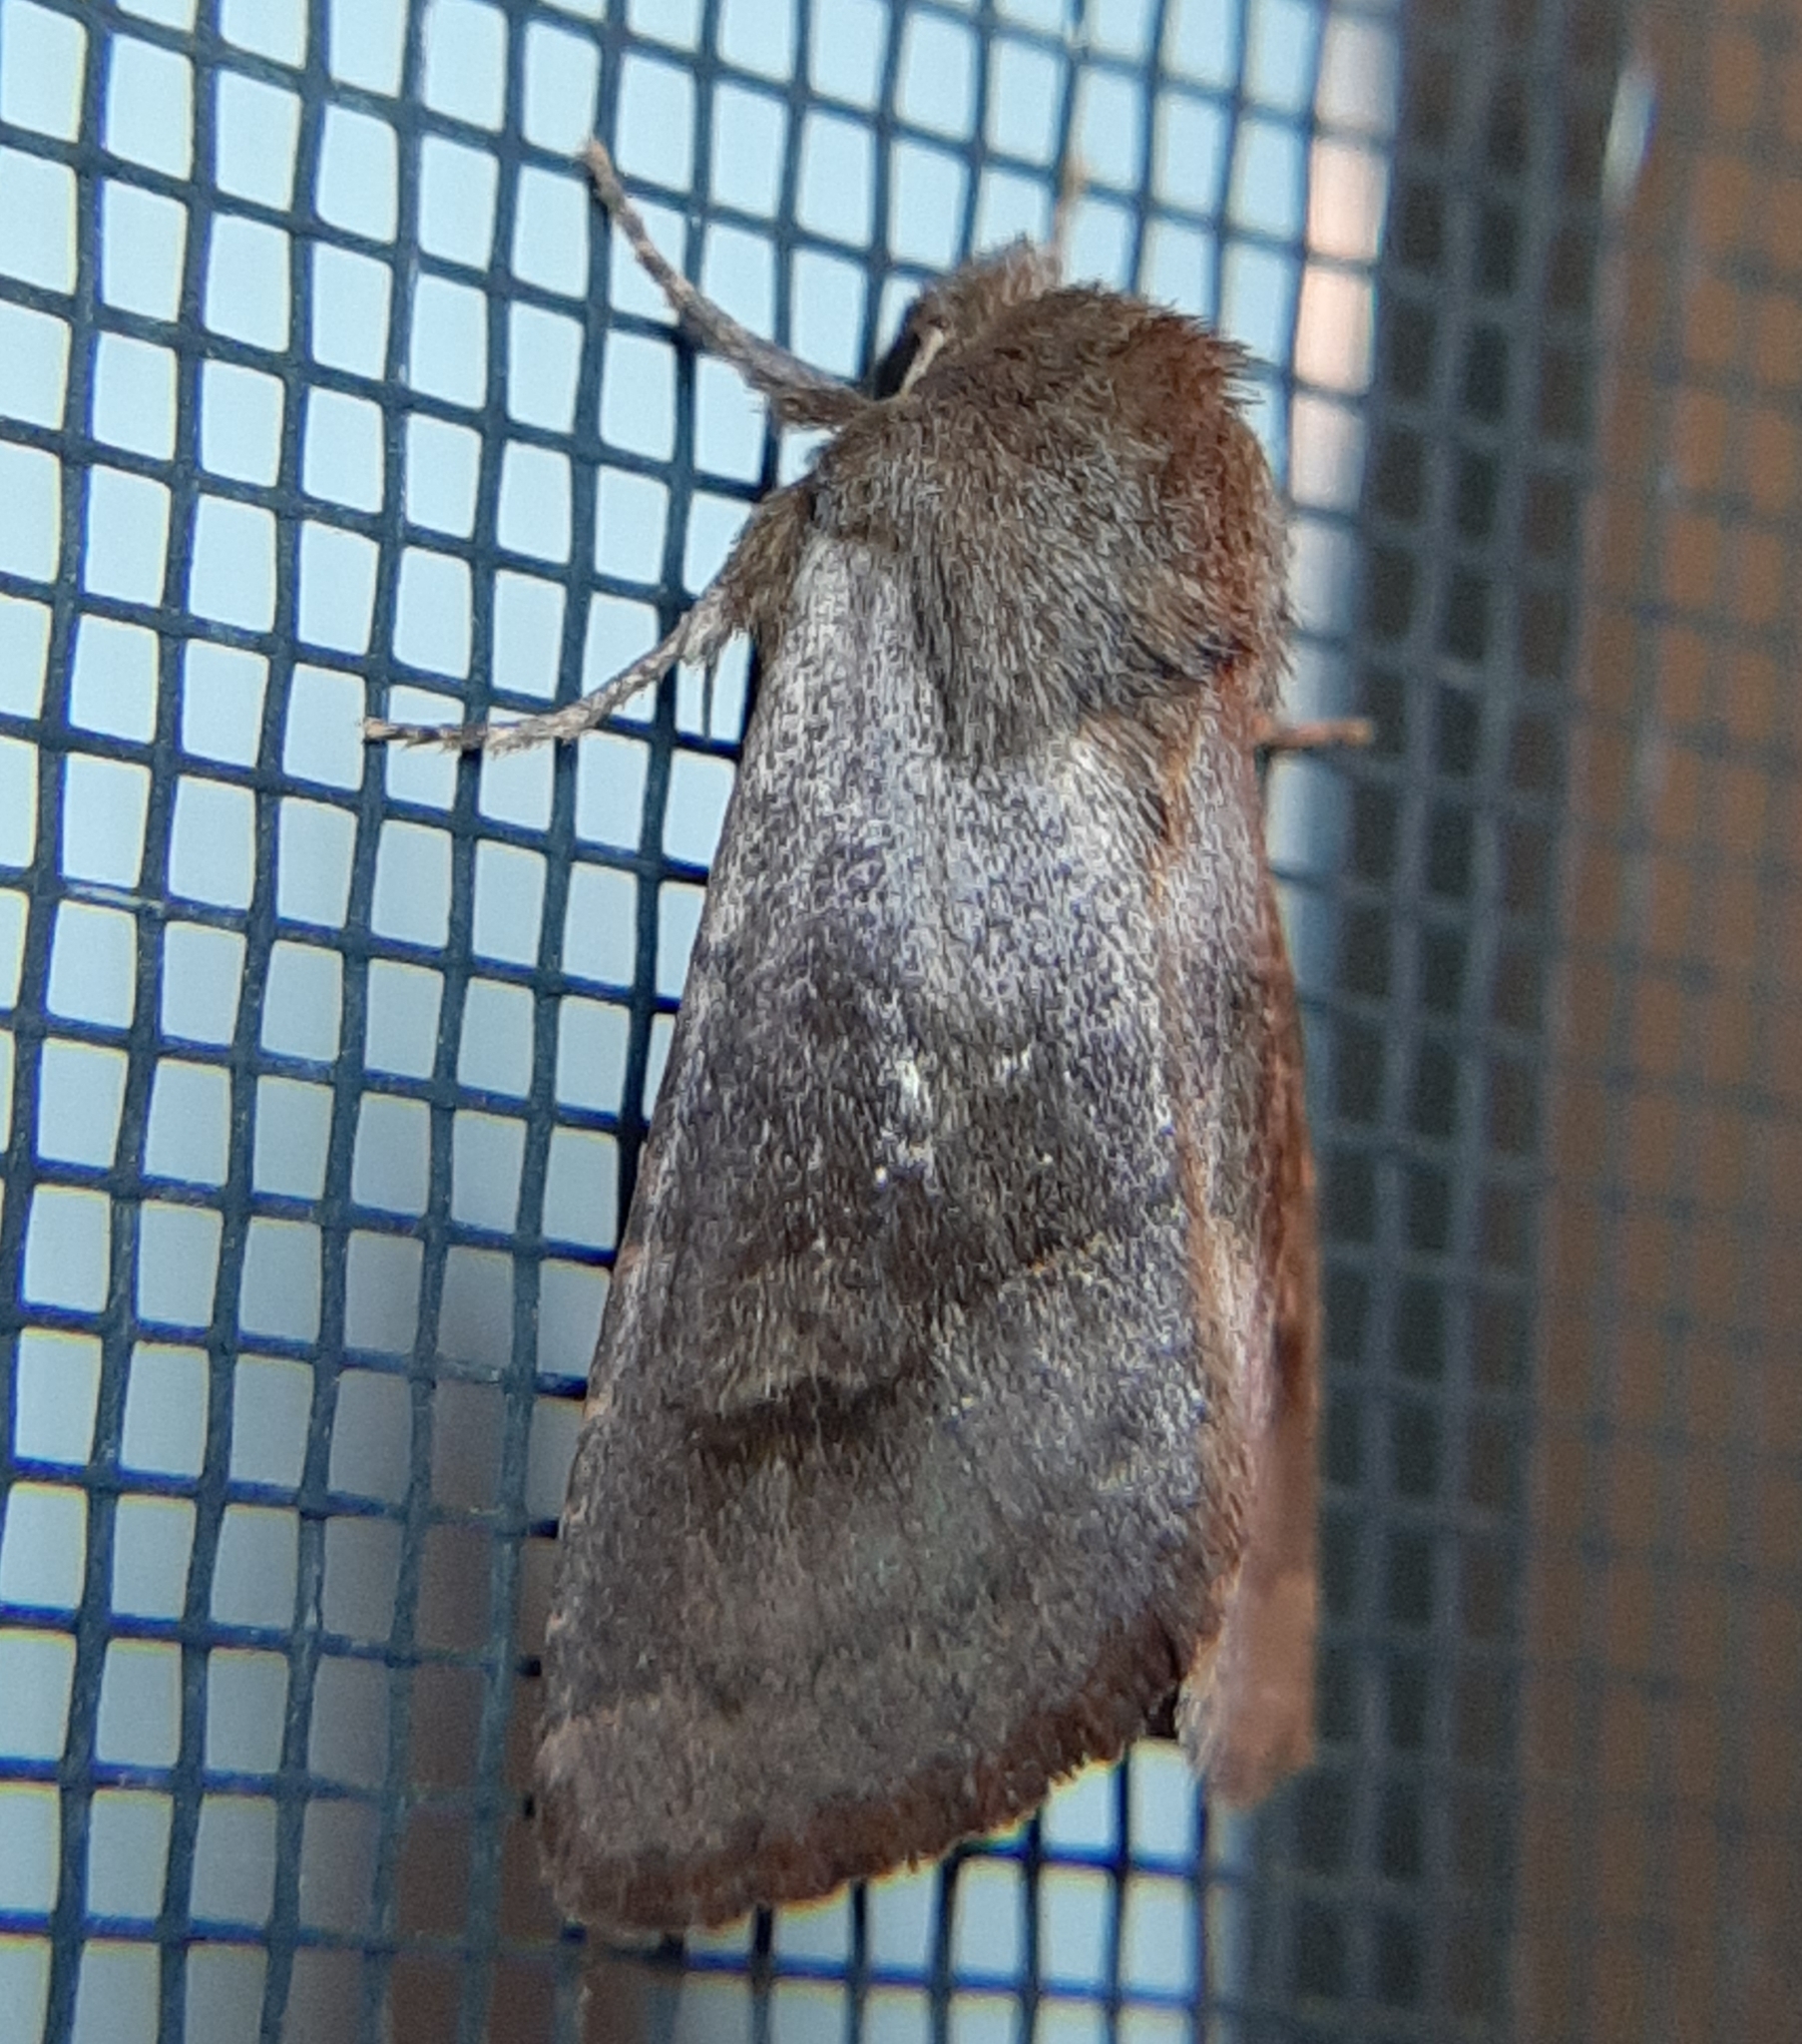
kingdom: Animalia
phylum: Arthropoda
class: Insecta
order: Lepidoptera
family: Noctuidae
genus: Nephelodes
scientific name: Nephelodes minians
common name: Bronzed cutworm
